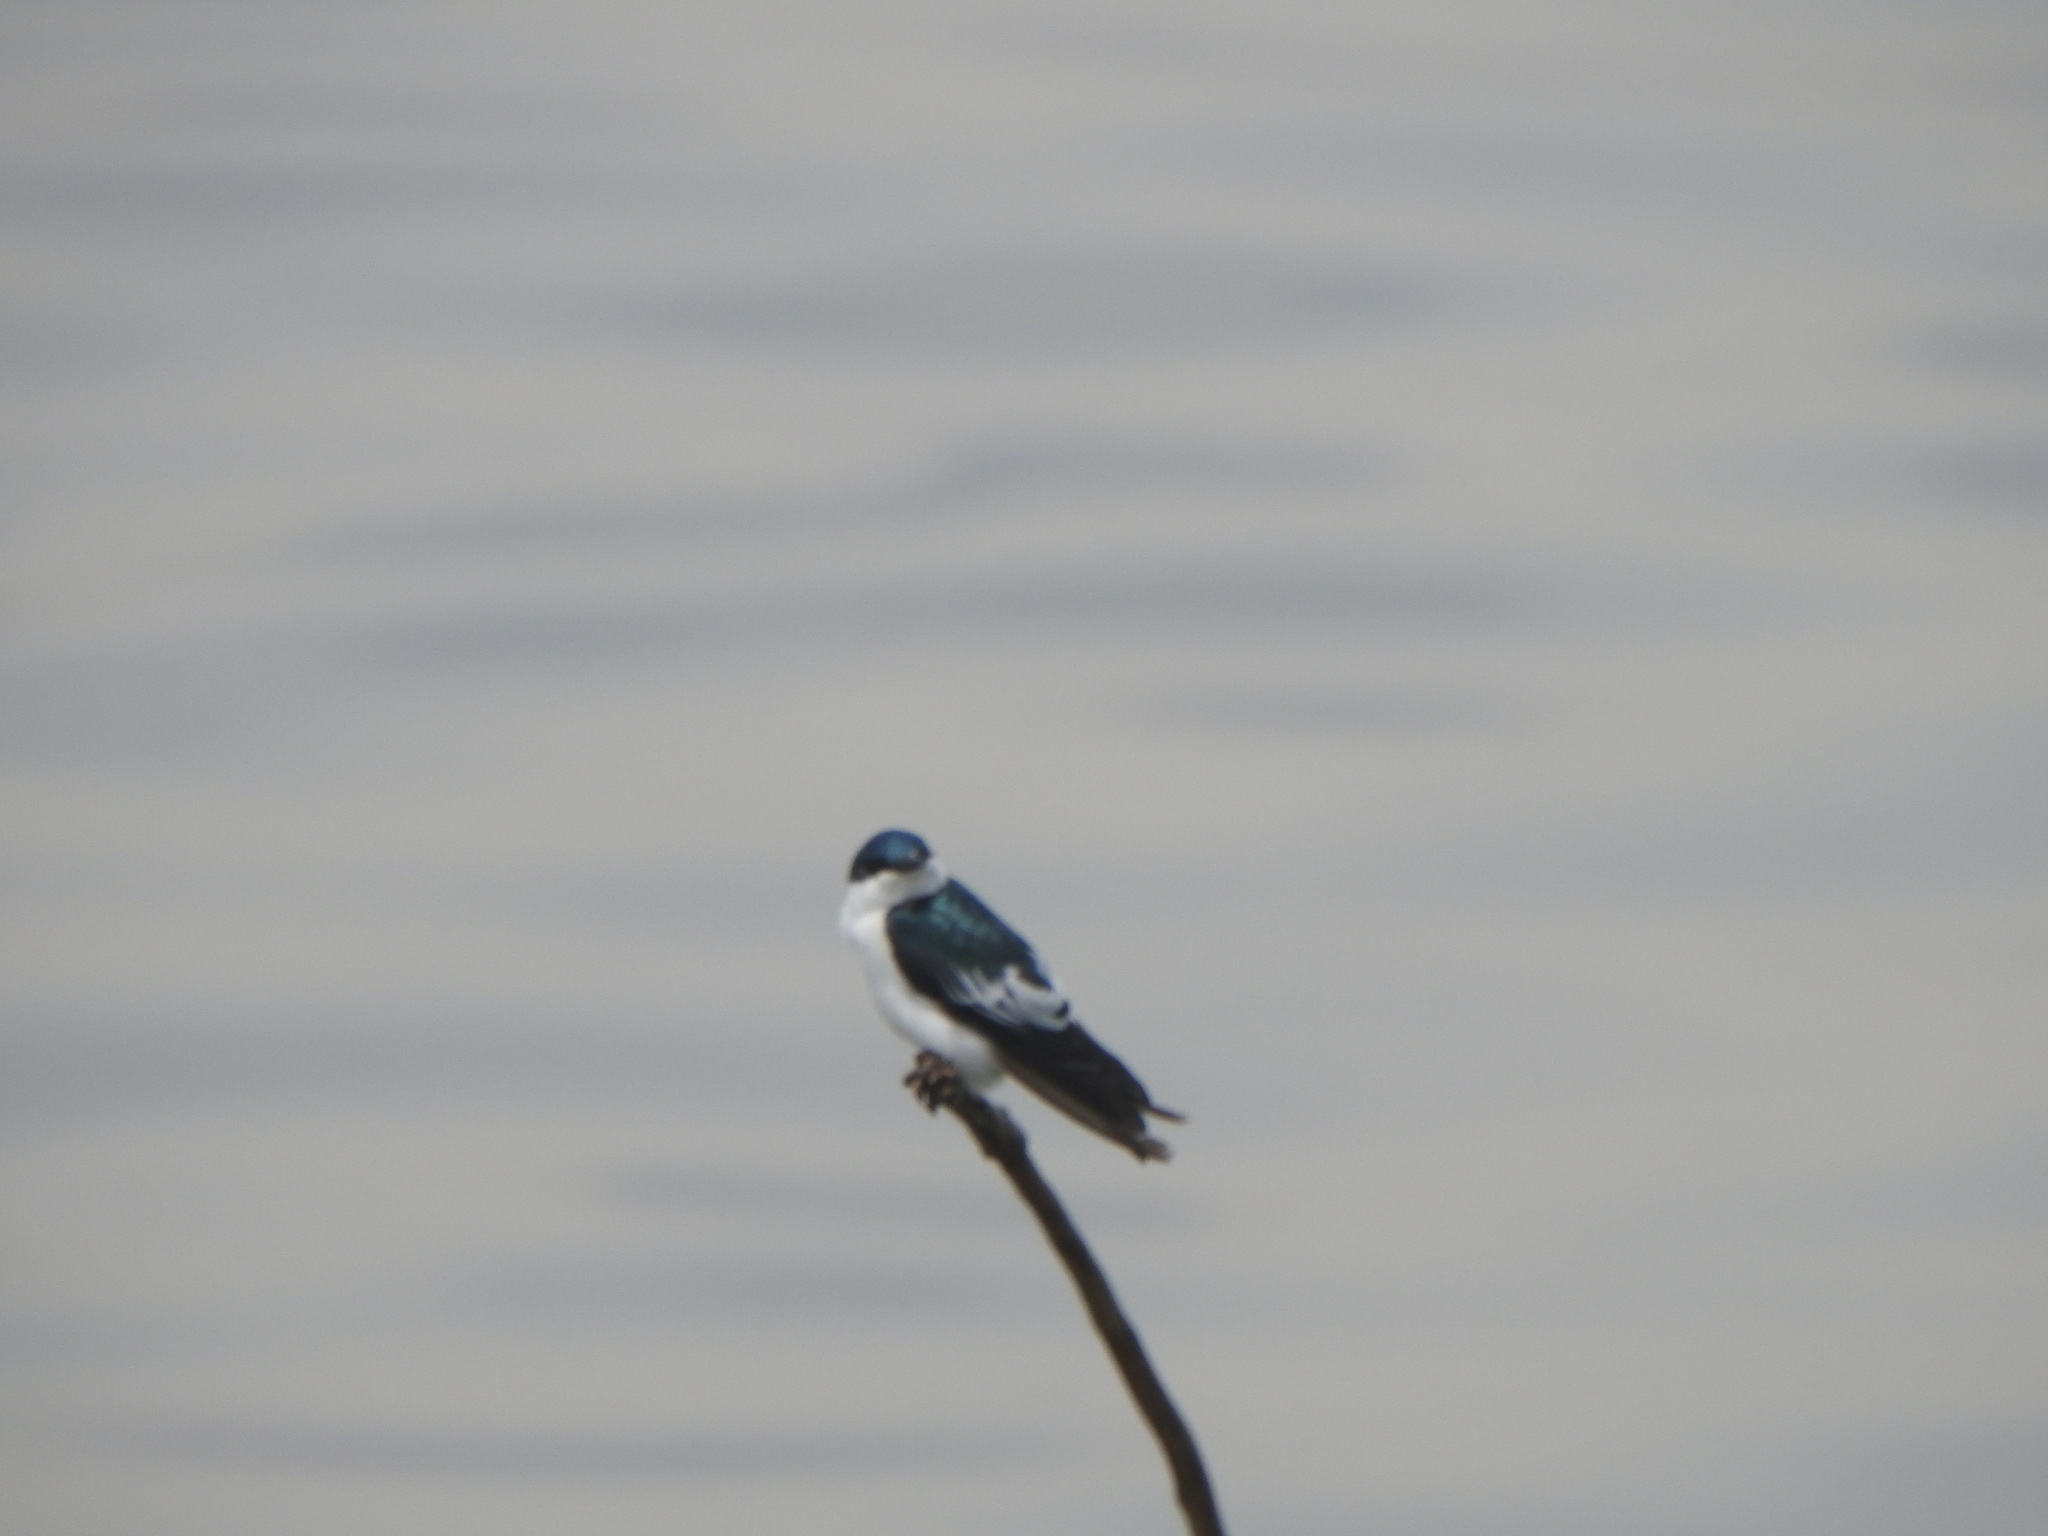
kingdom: Animalia
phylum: Chordata
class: Aves
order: Passeriformes
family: Hirundinidae
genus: Tachycineta
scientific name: Tachycineta albiventer
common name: White-winged swallow
